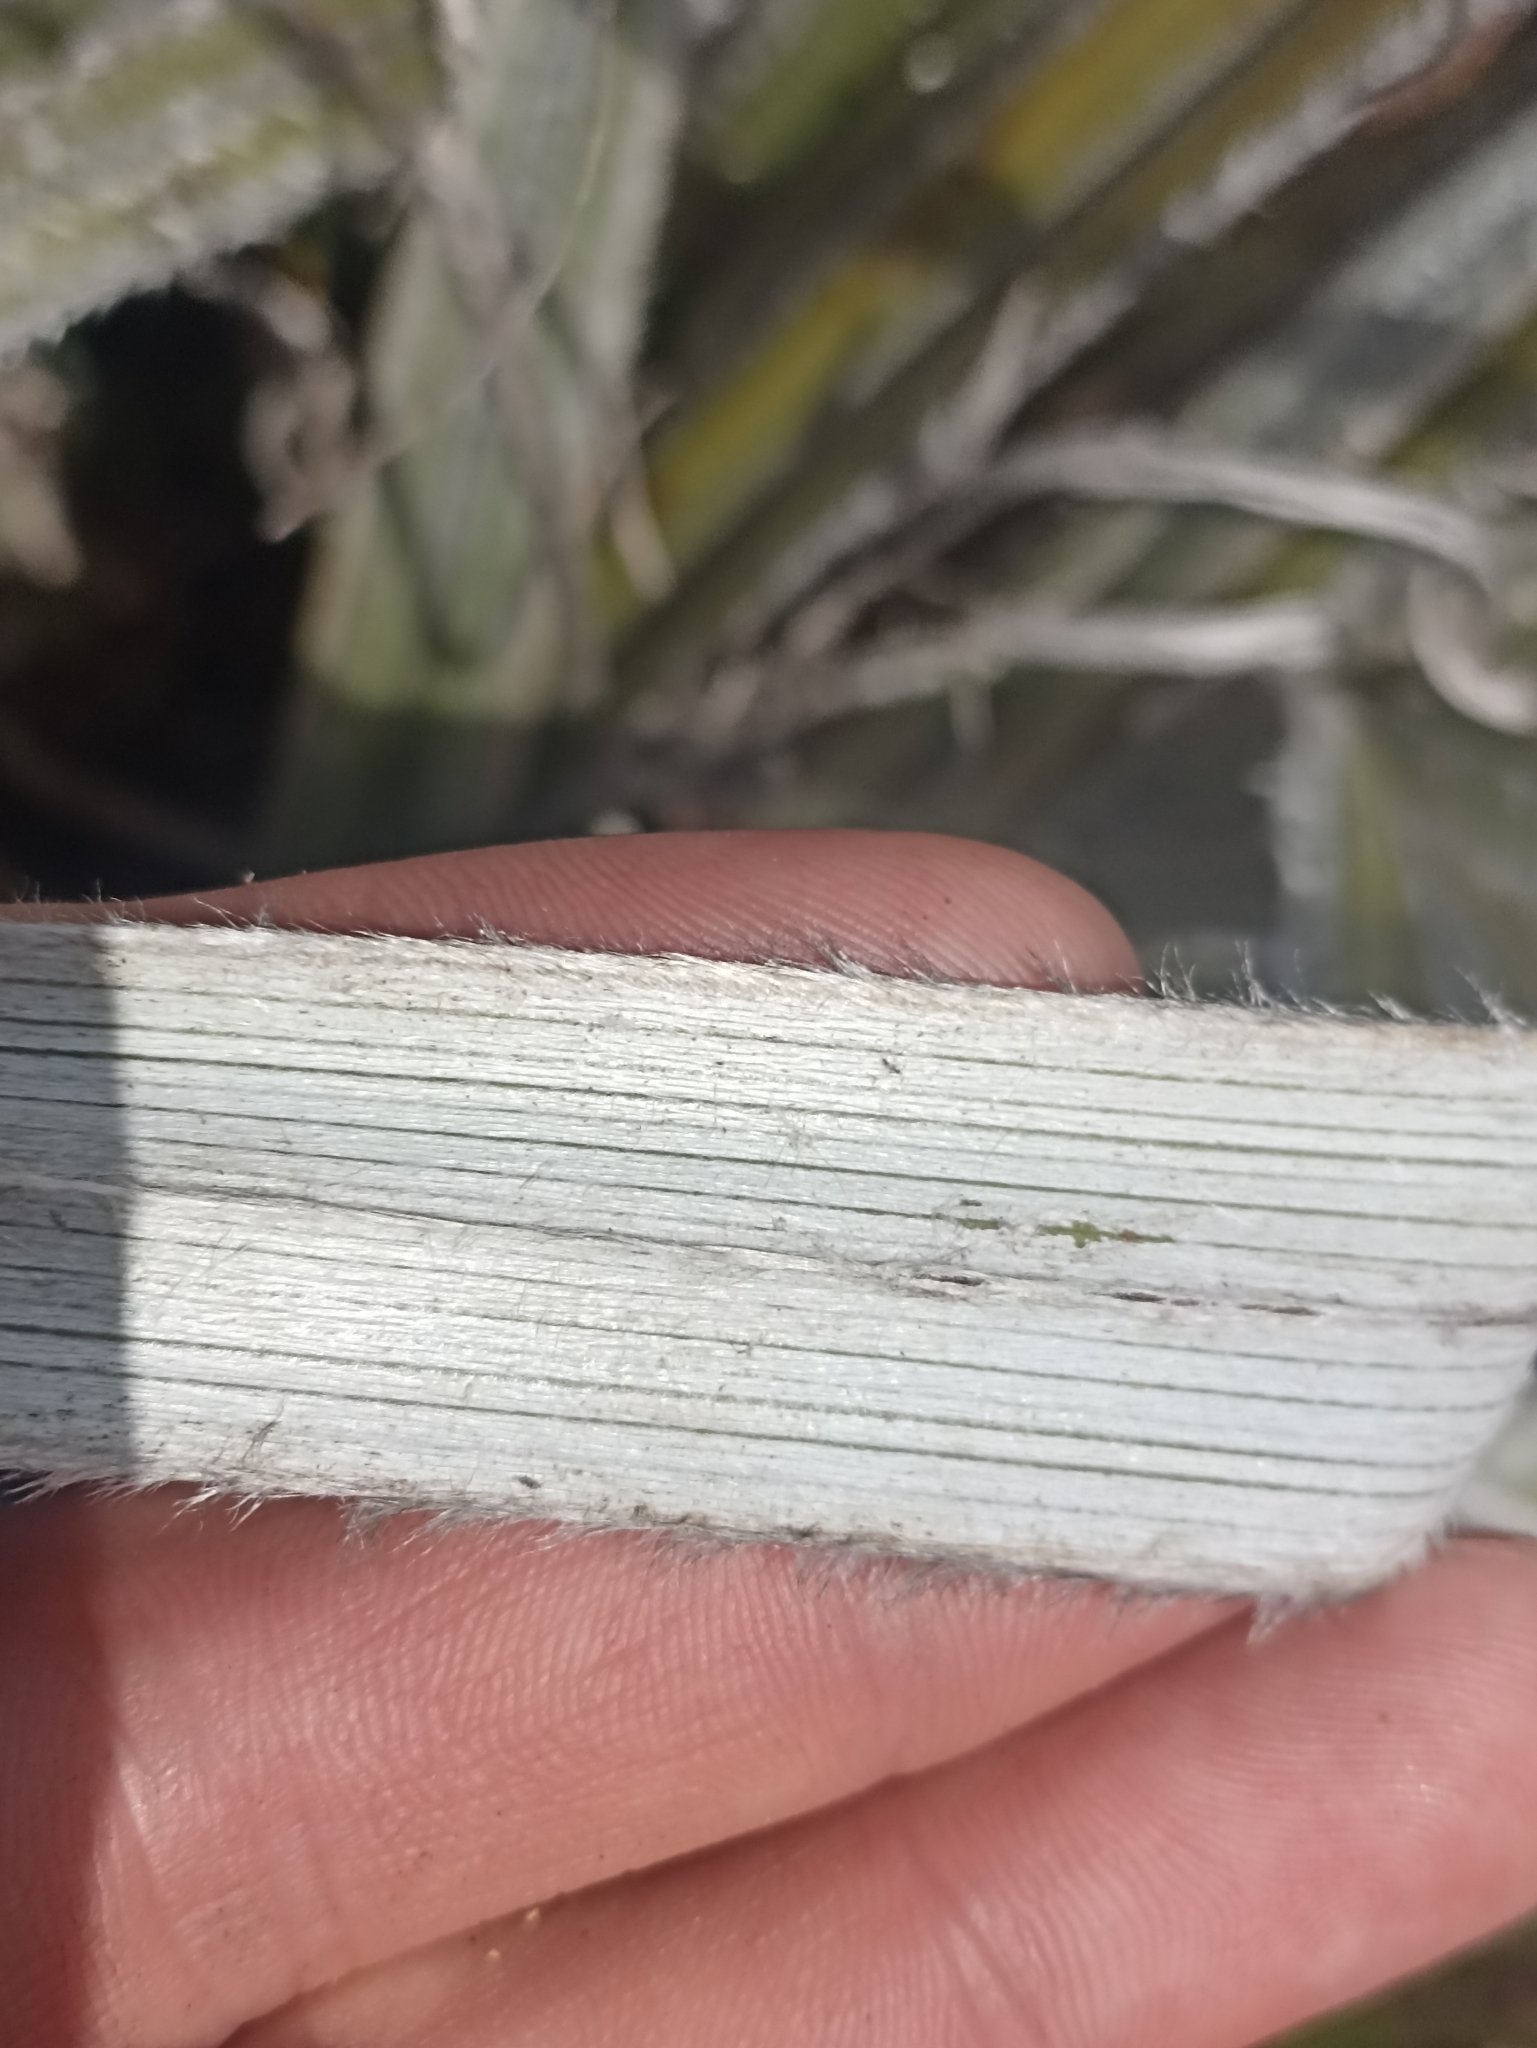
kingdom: Plantae
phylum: Tracheophyta
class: Liliopsida
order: Asparagales
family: Asteliaceae
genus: Astelia
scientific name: Astelia nervosa
